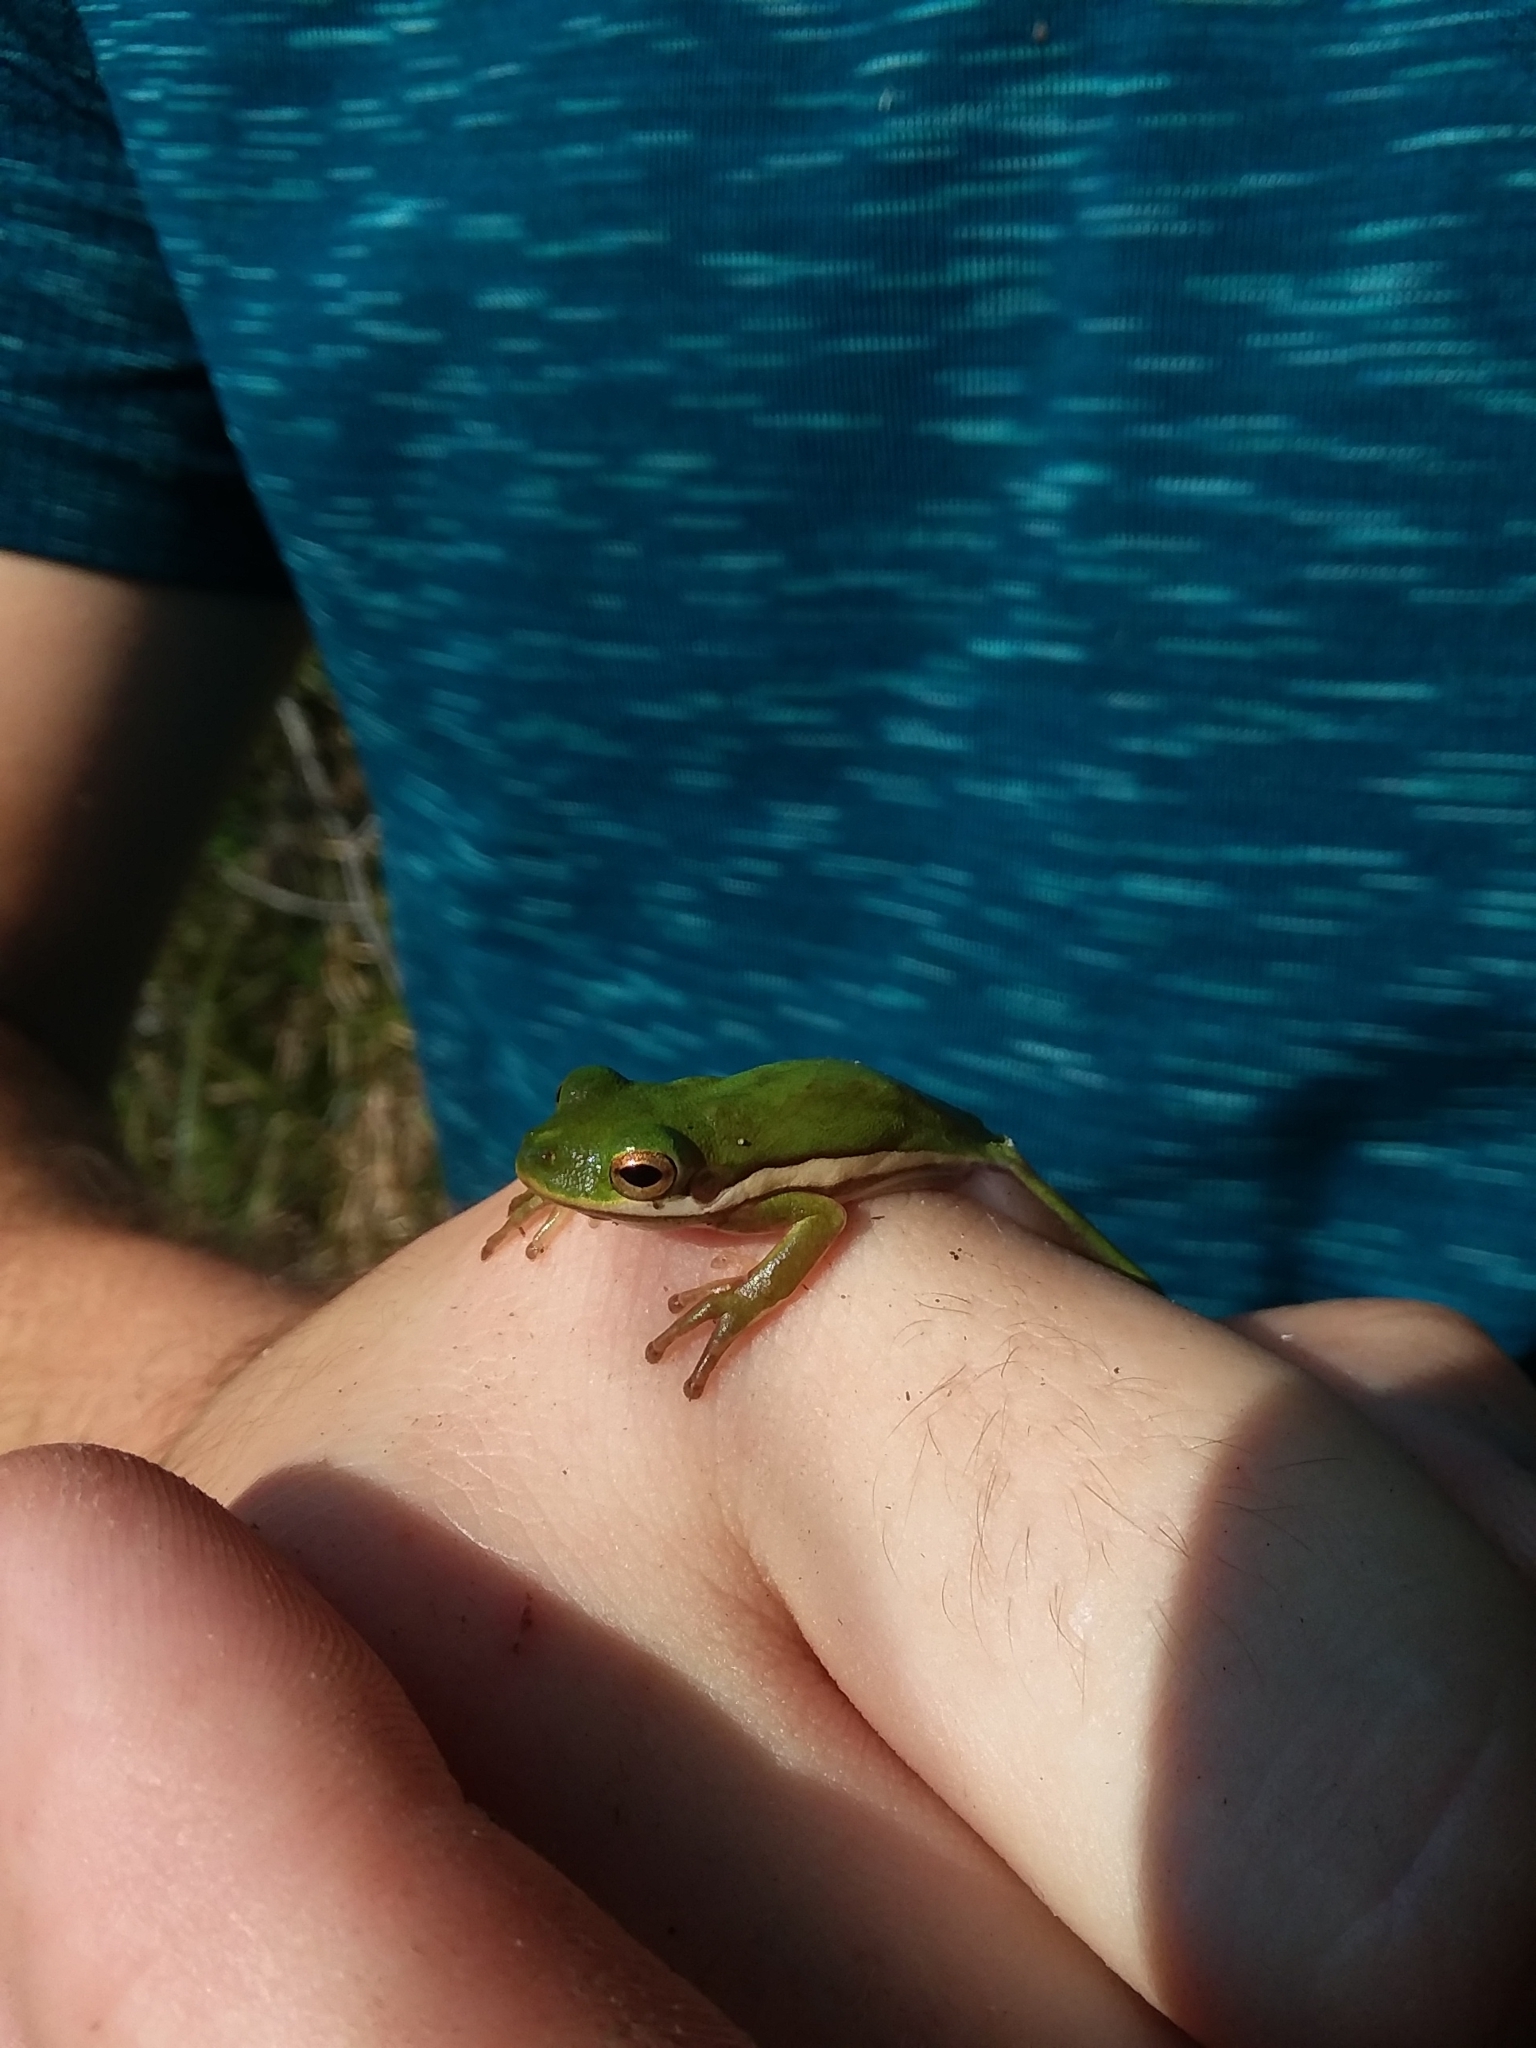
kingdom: Animalia
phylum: Chordata
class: Amphibia
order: Anura
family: Hylidae
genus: Dryophytes
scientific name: Dryophytes cinereus
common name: Green treefrog
